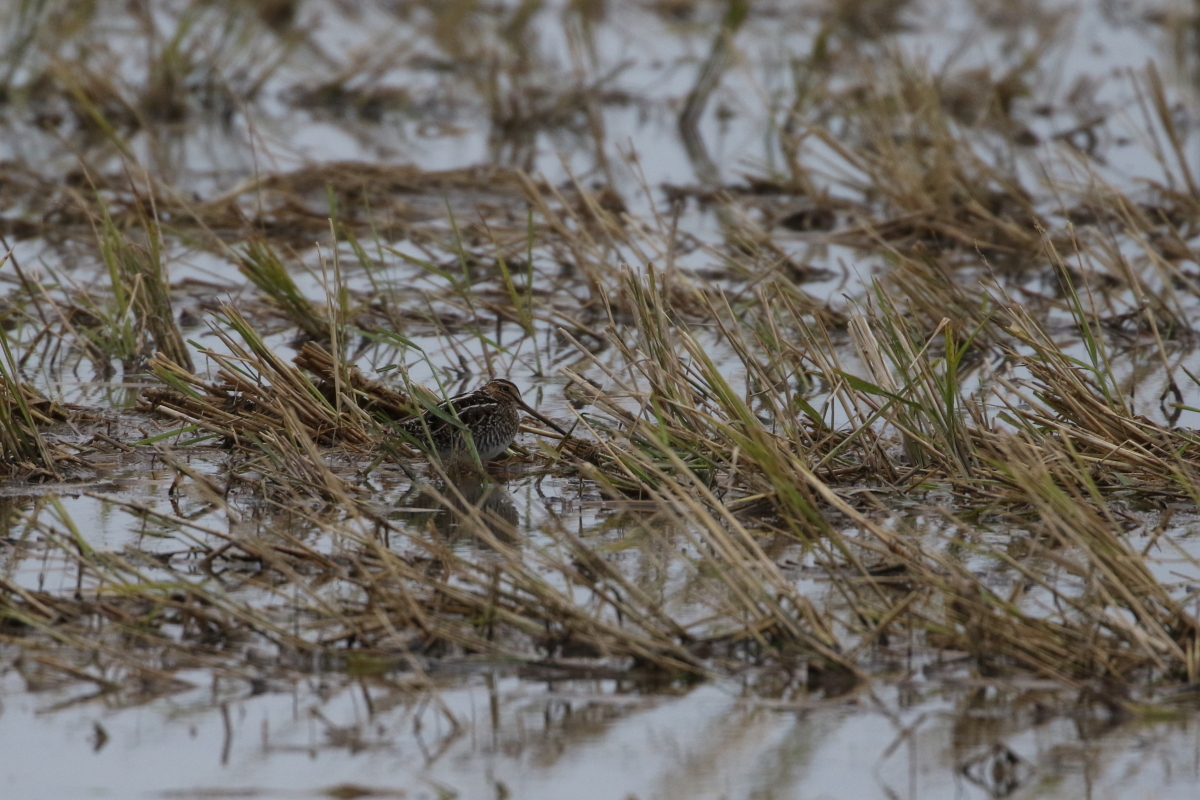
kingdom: Animalia
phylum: Chordata
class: Aves
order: Charadriiformes
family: Scolopacidae
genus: Gallinago
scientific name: Gallinago delicata
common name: Wilson's snipe
